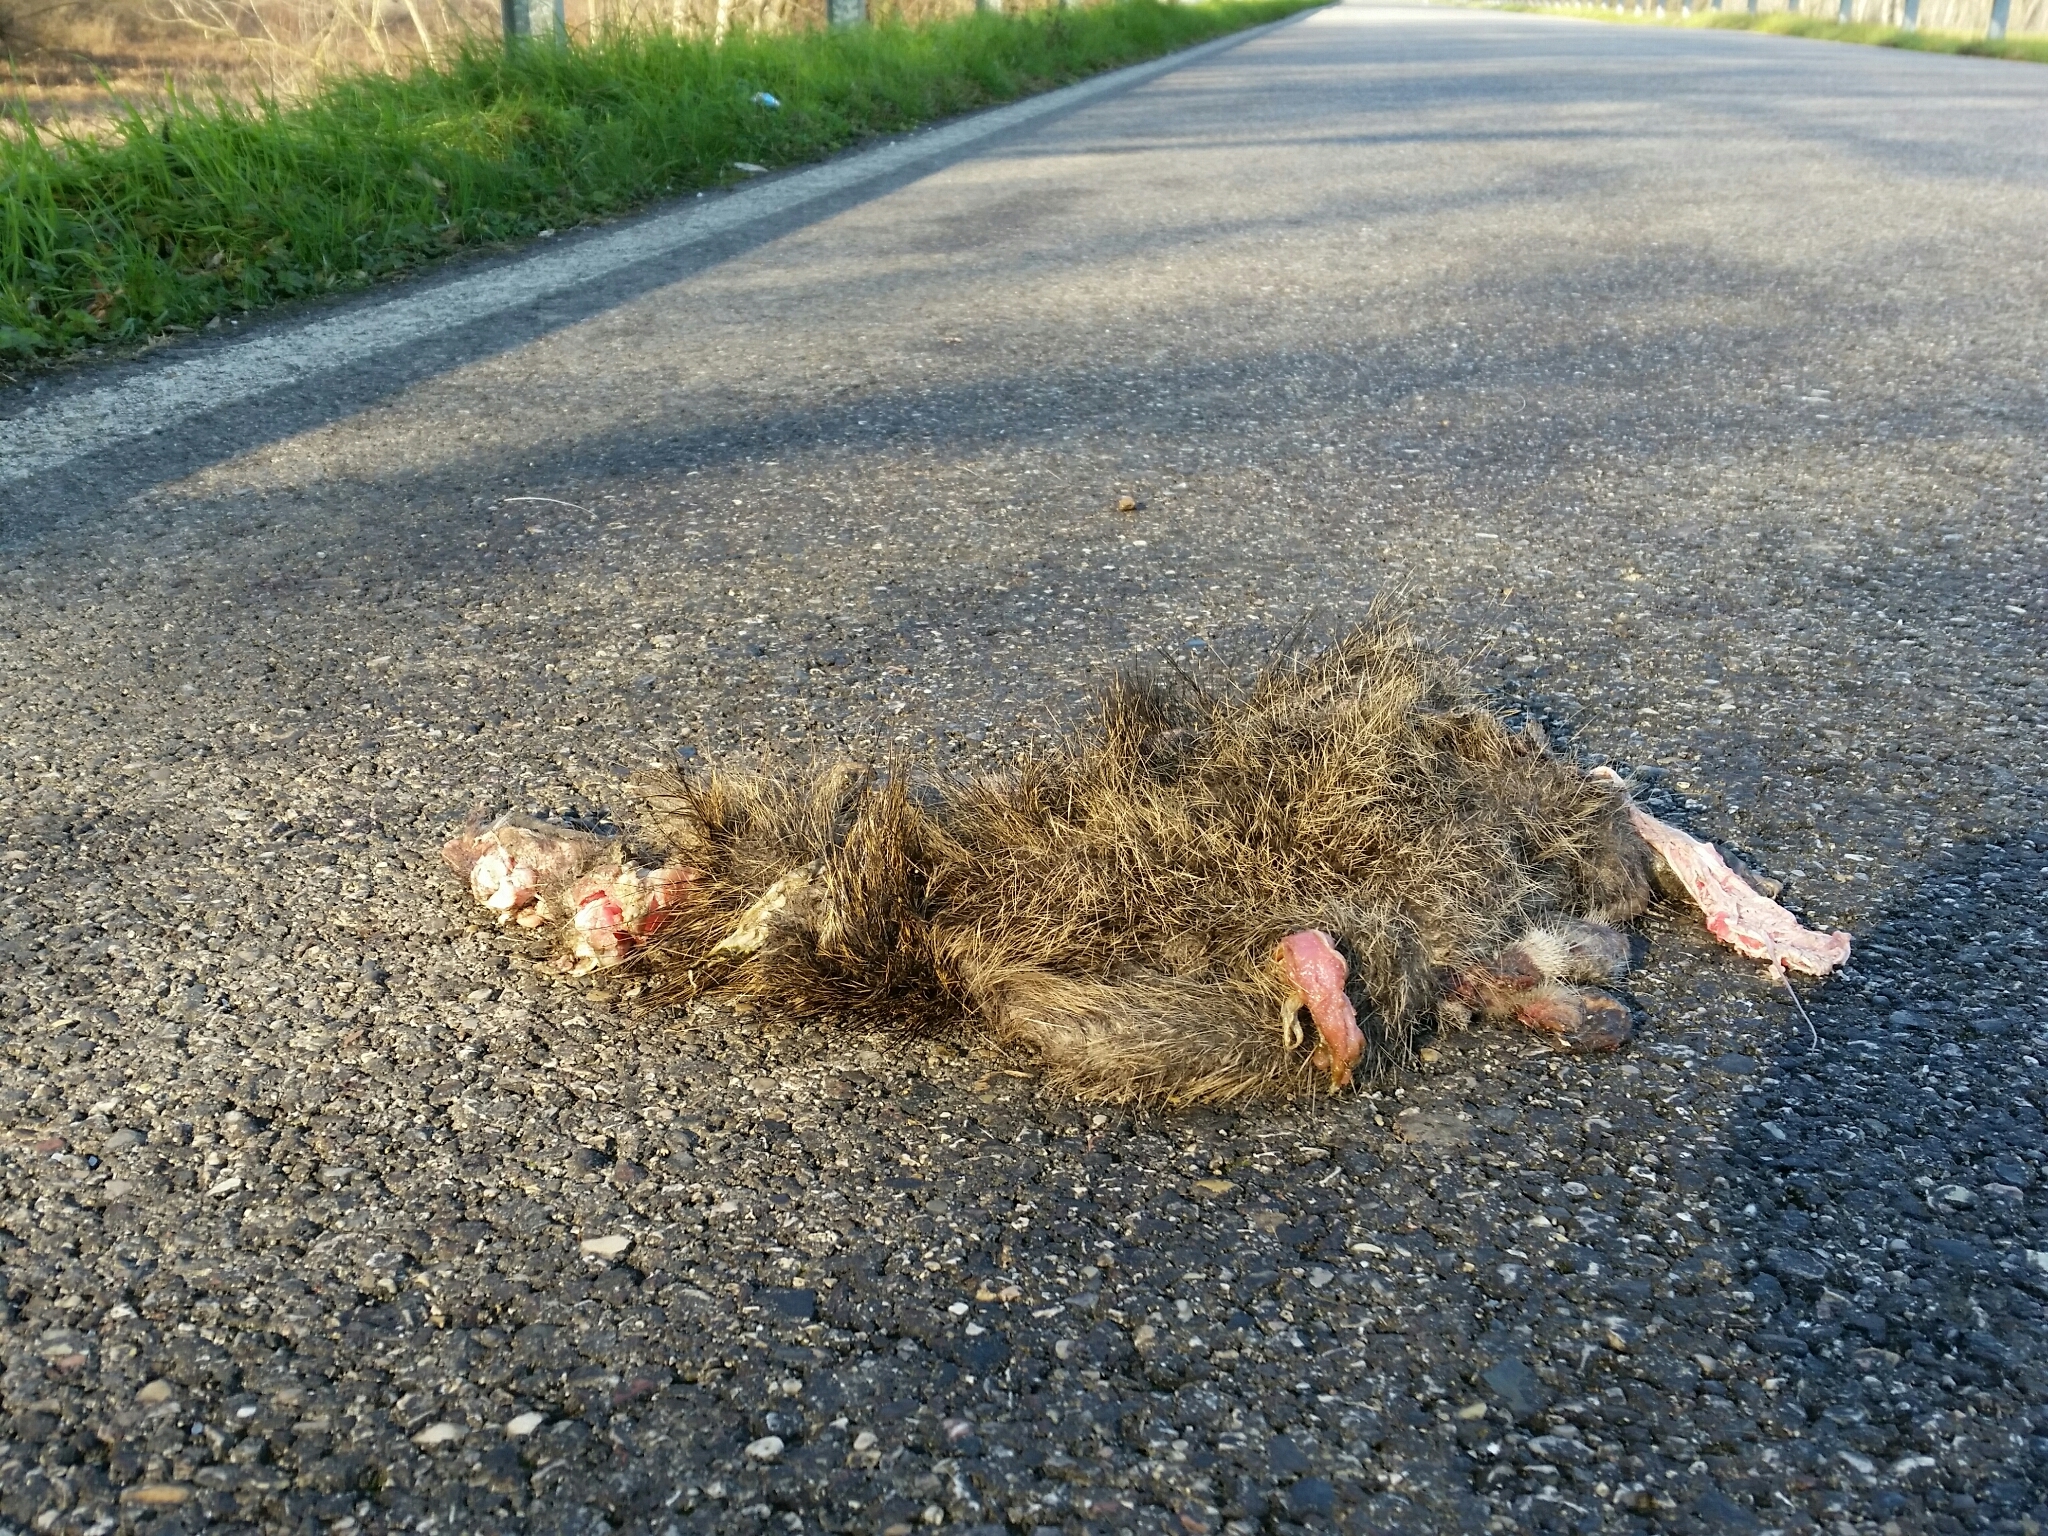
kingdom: Animalia
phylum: Chordata
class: Mammalia
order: Rodentia
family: Myocastoridae
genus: Myocastor
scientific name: Myocastor coypus
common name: Coypu
